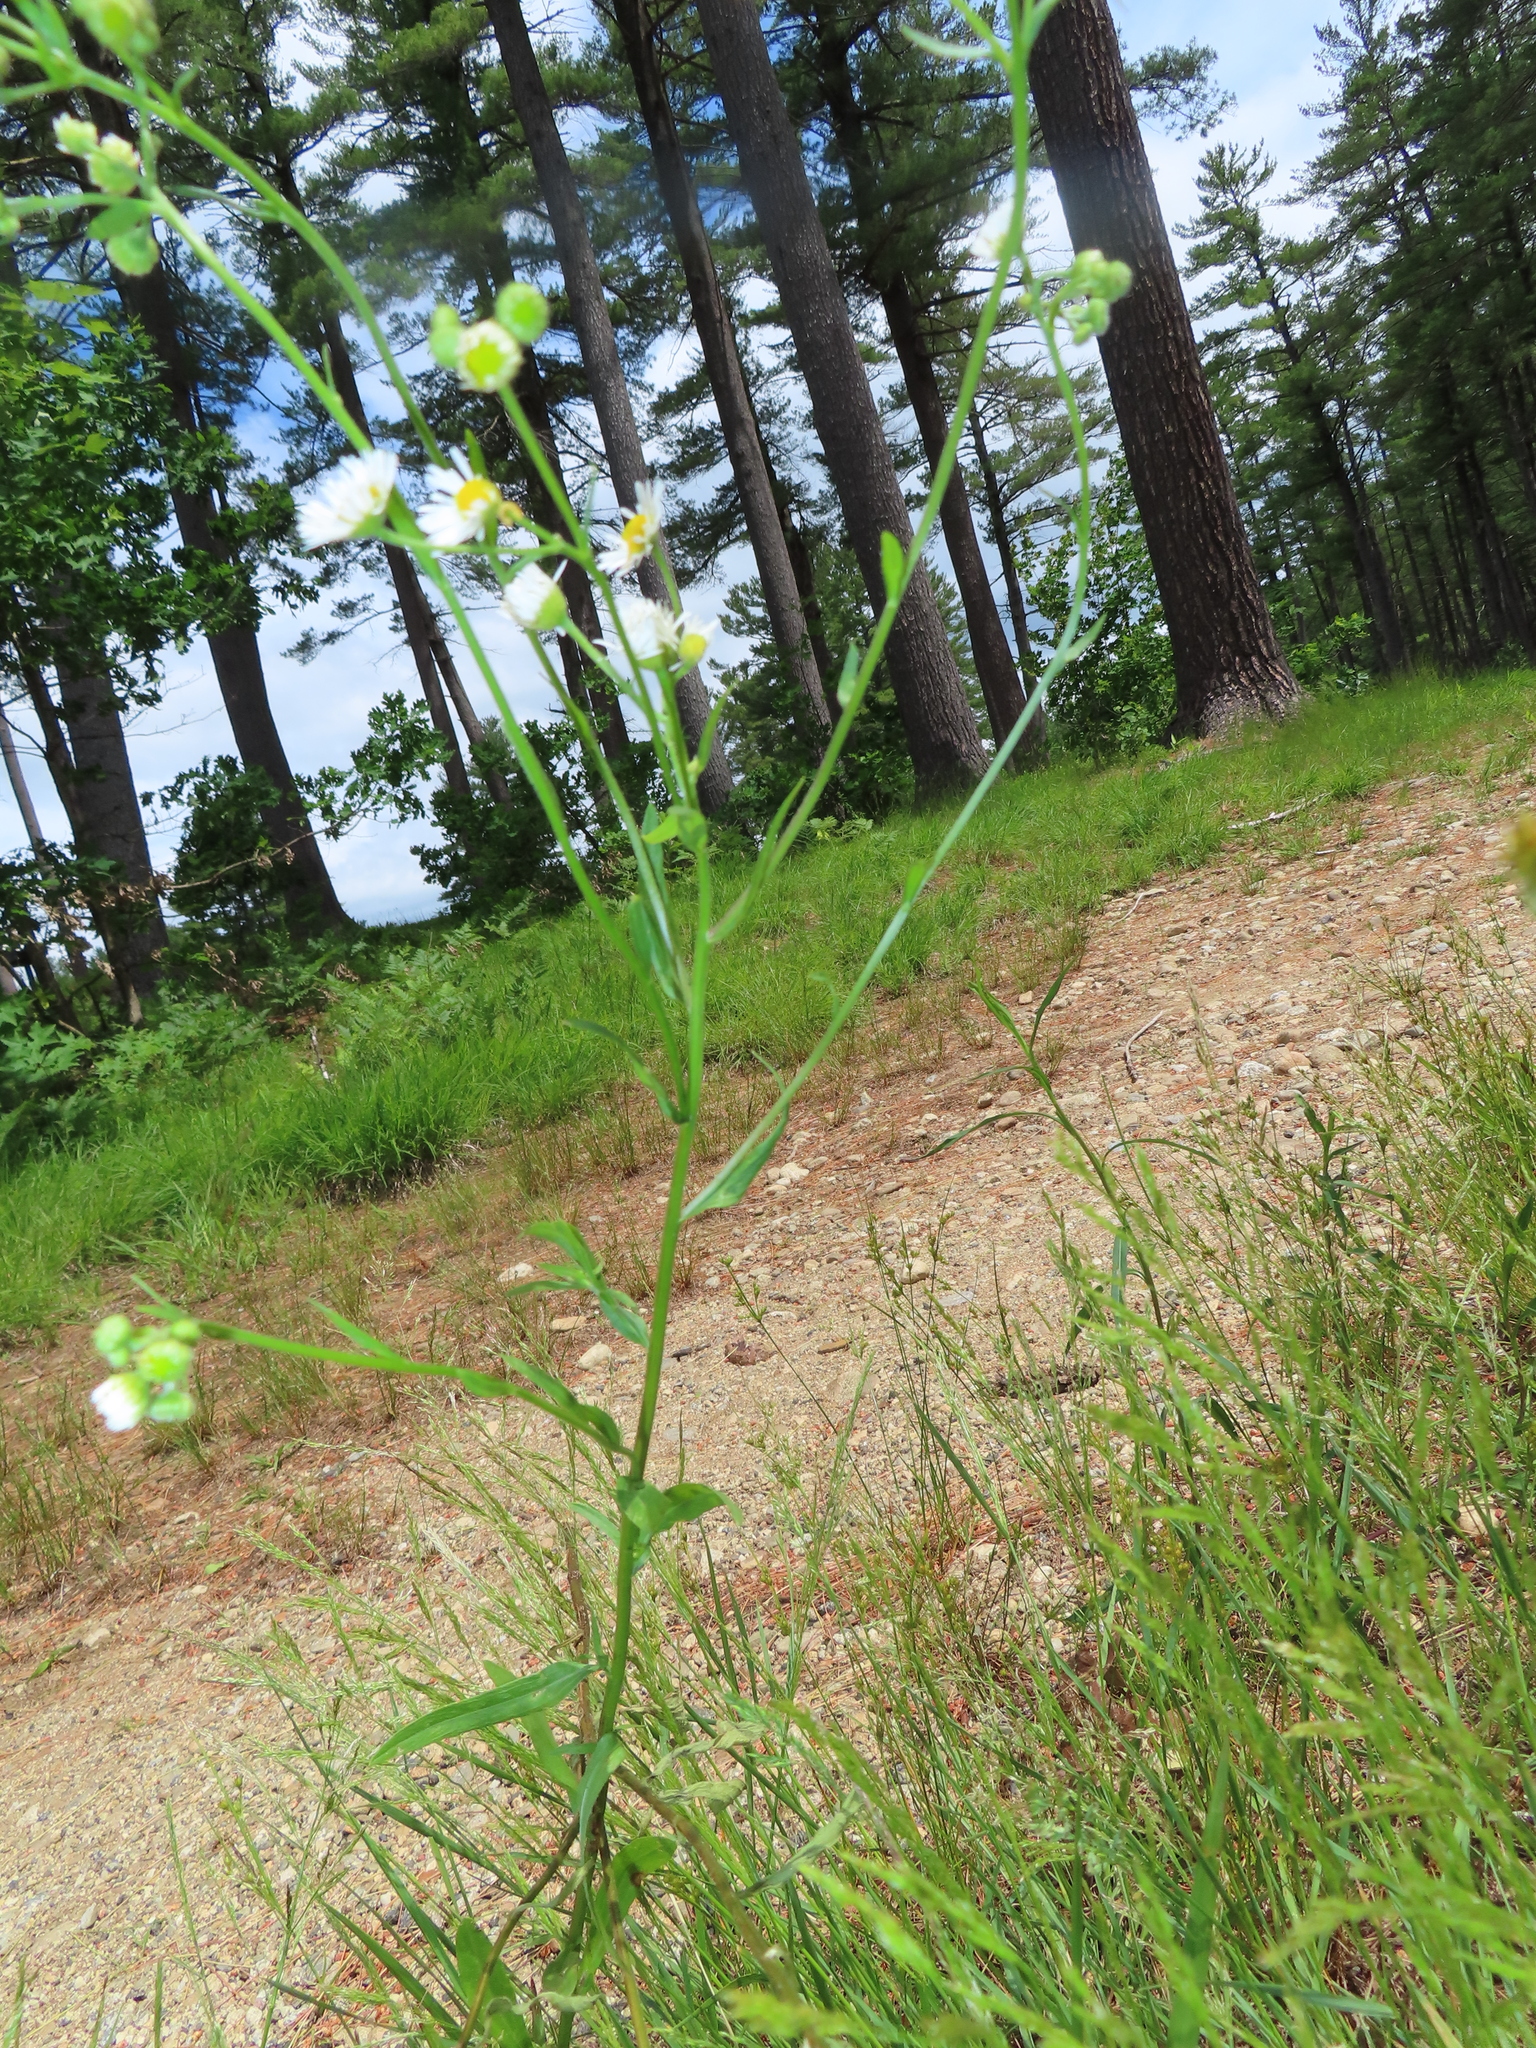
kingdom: Plantae
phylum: Tracheophyta
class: Magnoliopsida
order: Asterales
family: Asteraceae
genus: Erigeron
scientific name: Erigeron philadelphicus
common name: Robin's-plantain
